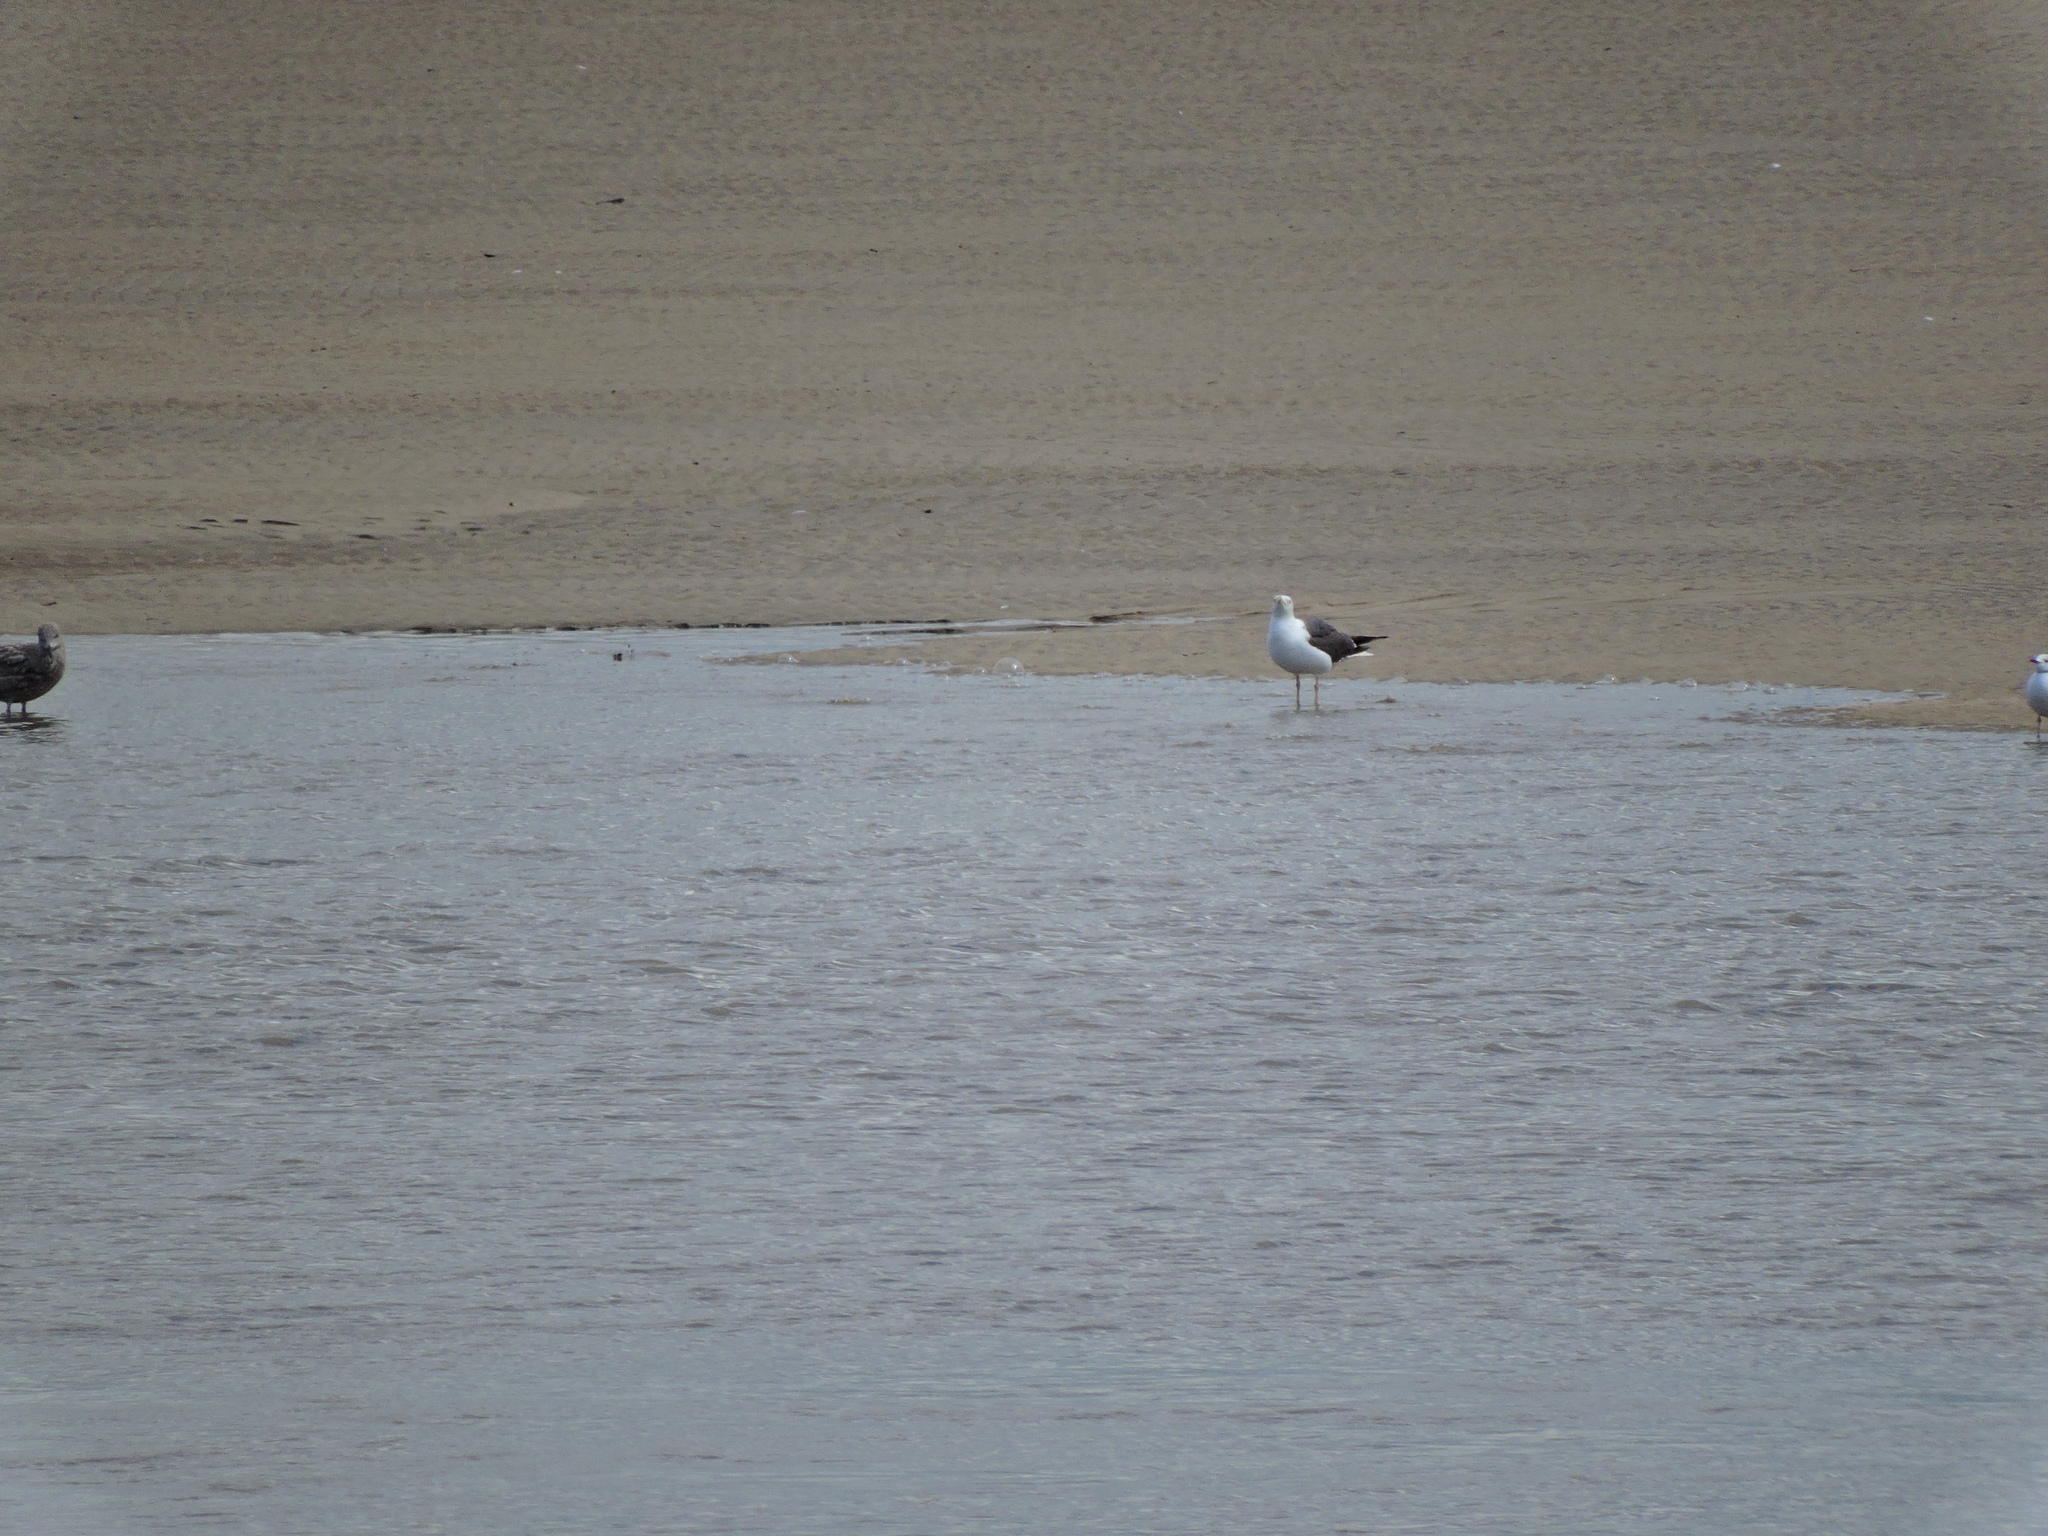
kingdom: Animalia
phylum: Chordata
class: Aves
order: Charadriiformes
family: Laridae
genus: Larus
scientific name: Larus fuscus
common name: Lesser black-backed gull
